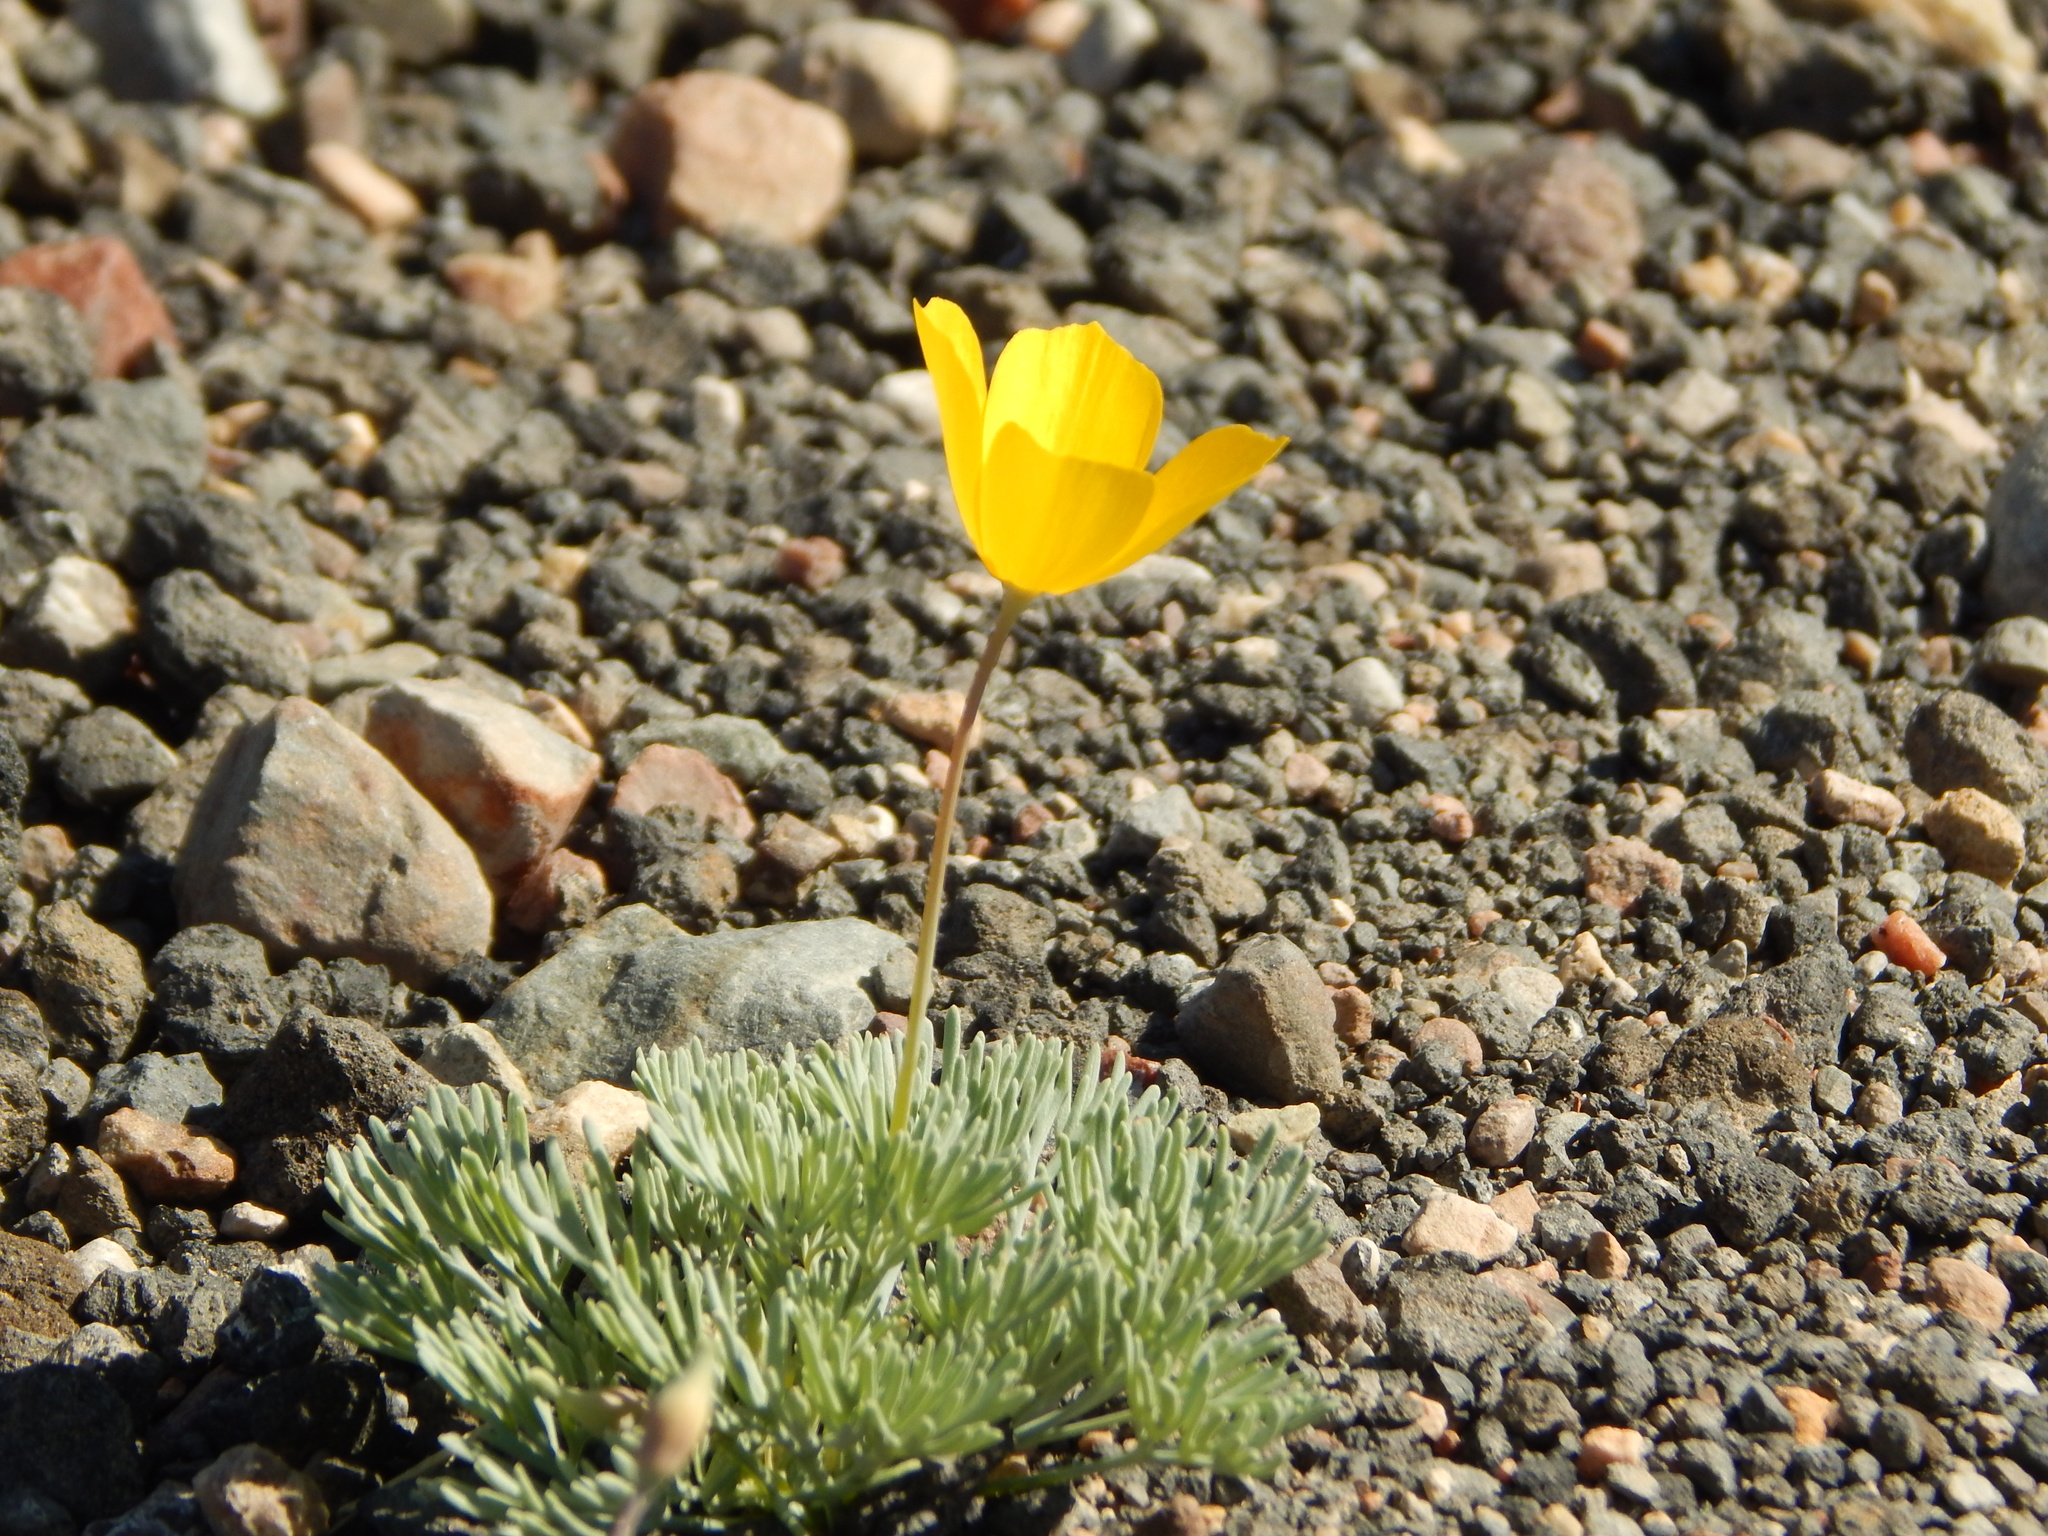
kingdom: Plantae
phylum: Tracheophyta
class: Magnoliopsida
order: Ranunculales
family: Papaveraceae
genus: Eschscholzia
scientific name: Eschscholzia glyptosperma
